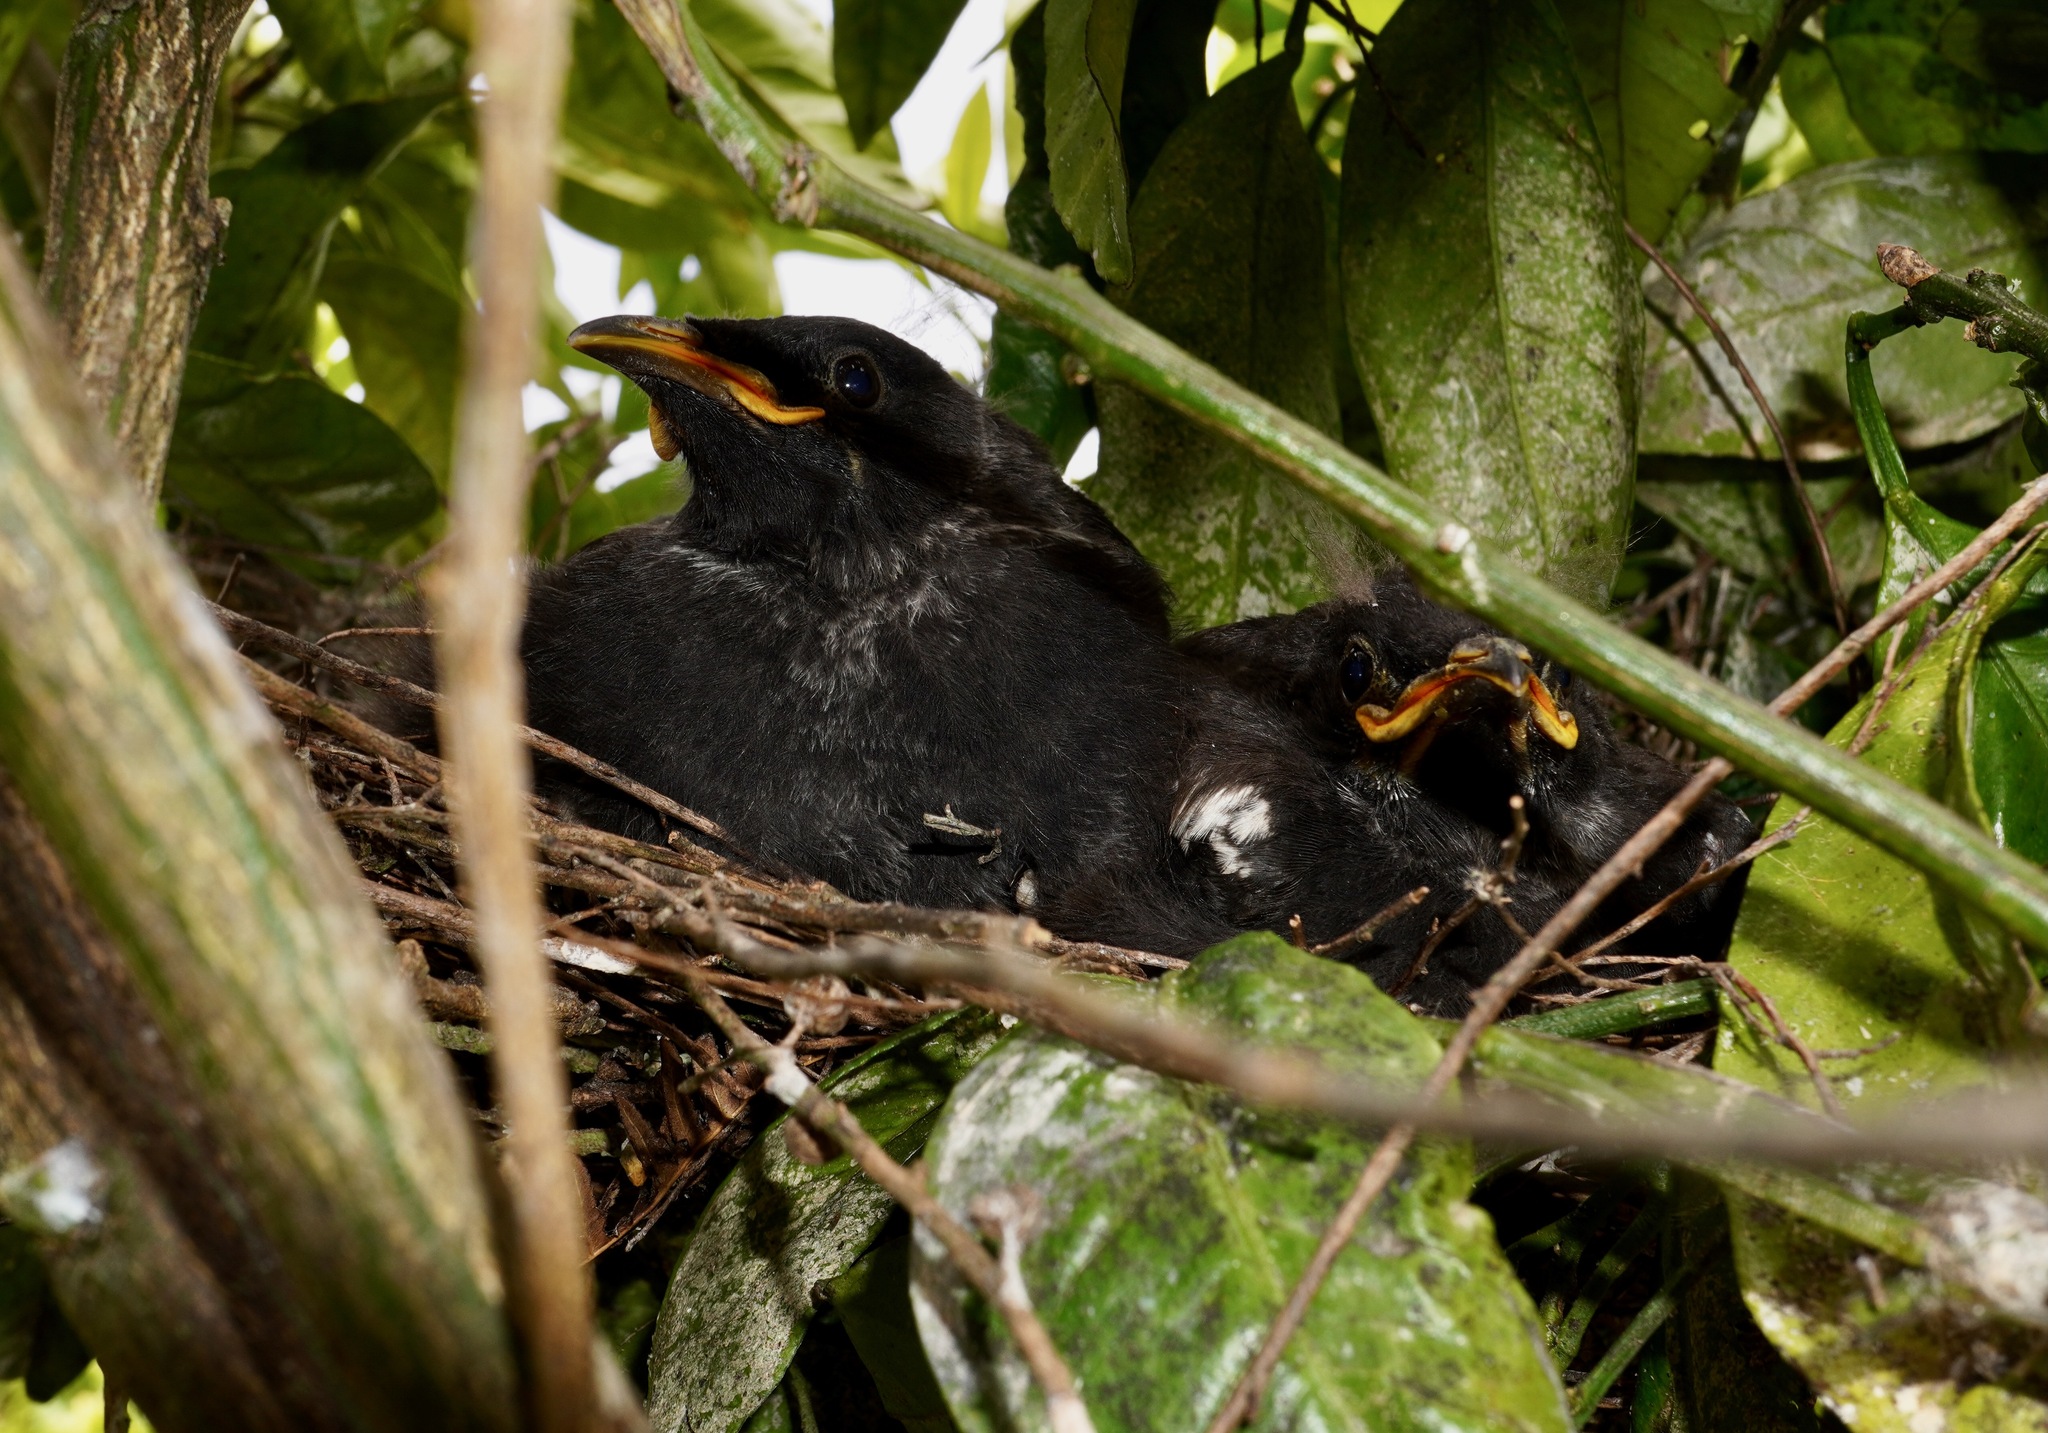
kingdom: Animalia
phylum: Chordata
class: Aves
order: Passeriformes
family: Meliphagidae
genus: Prosthemadera
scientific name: Prosthemadera novaeseelandiae
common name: Tui
